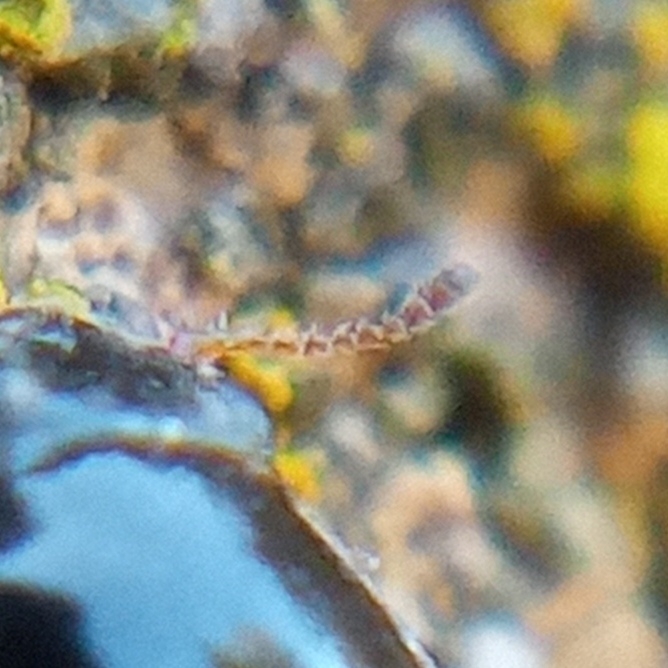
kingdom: Animalia
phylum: Arthropoda
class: Insecta
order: Coleoptera
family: Coccinellidae
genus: Aphidecta
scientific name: Aphidecta obliterata
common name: Larch ladybird
